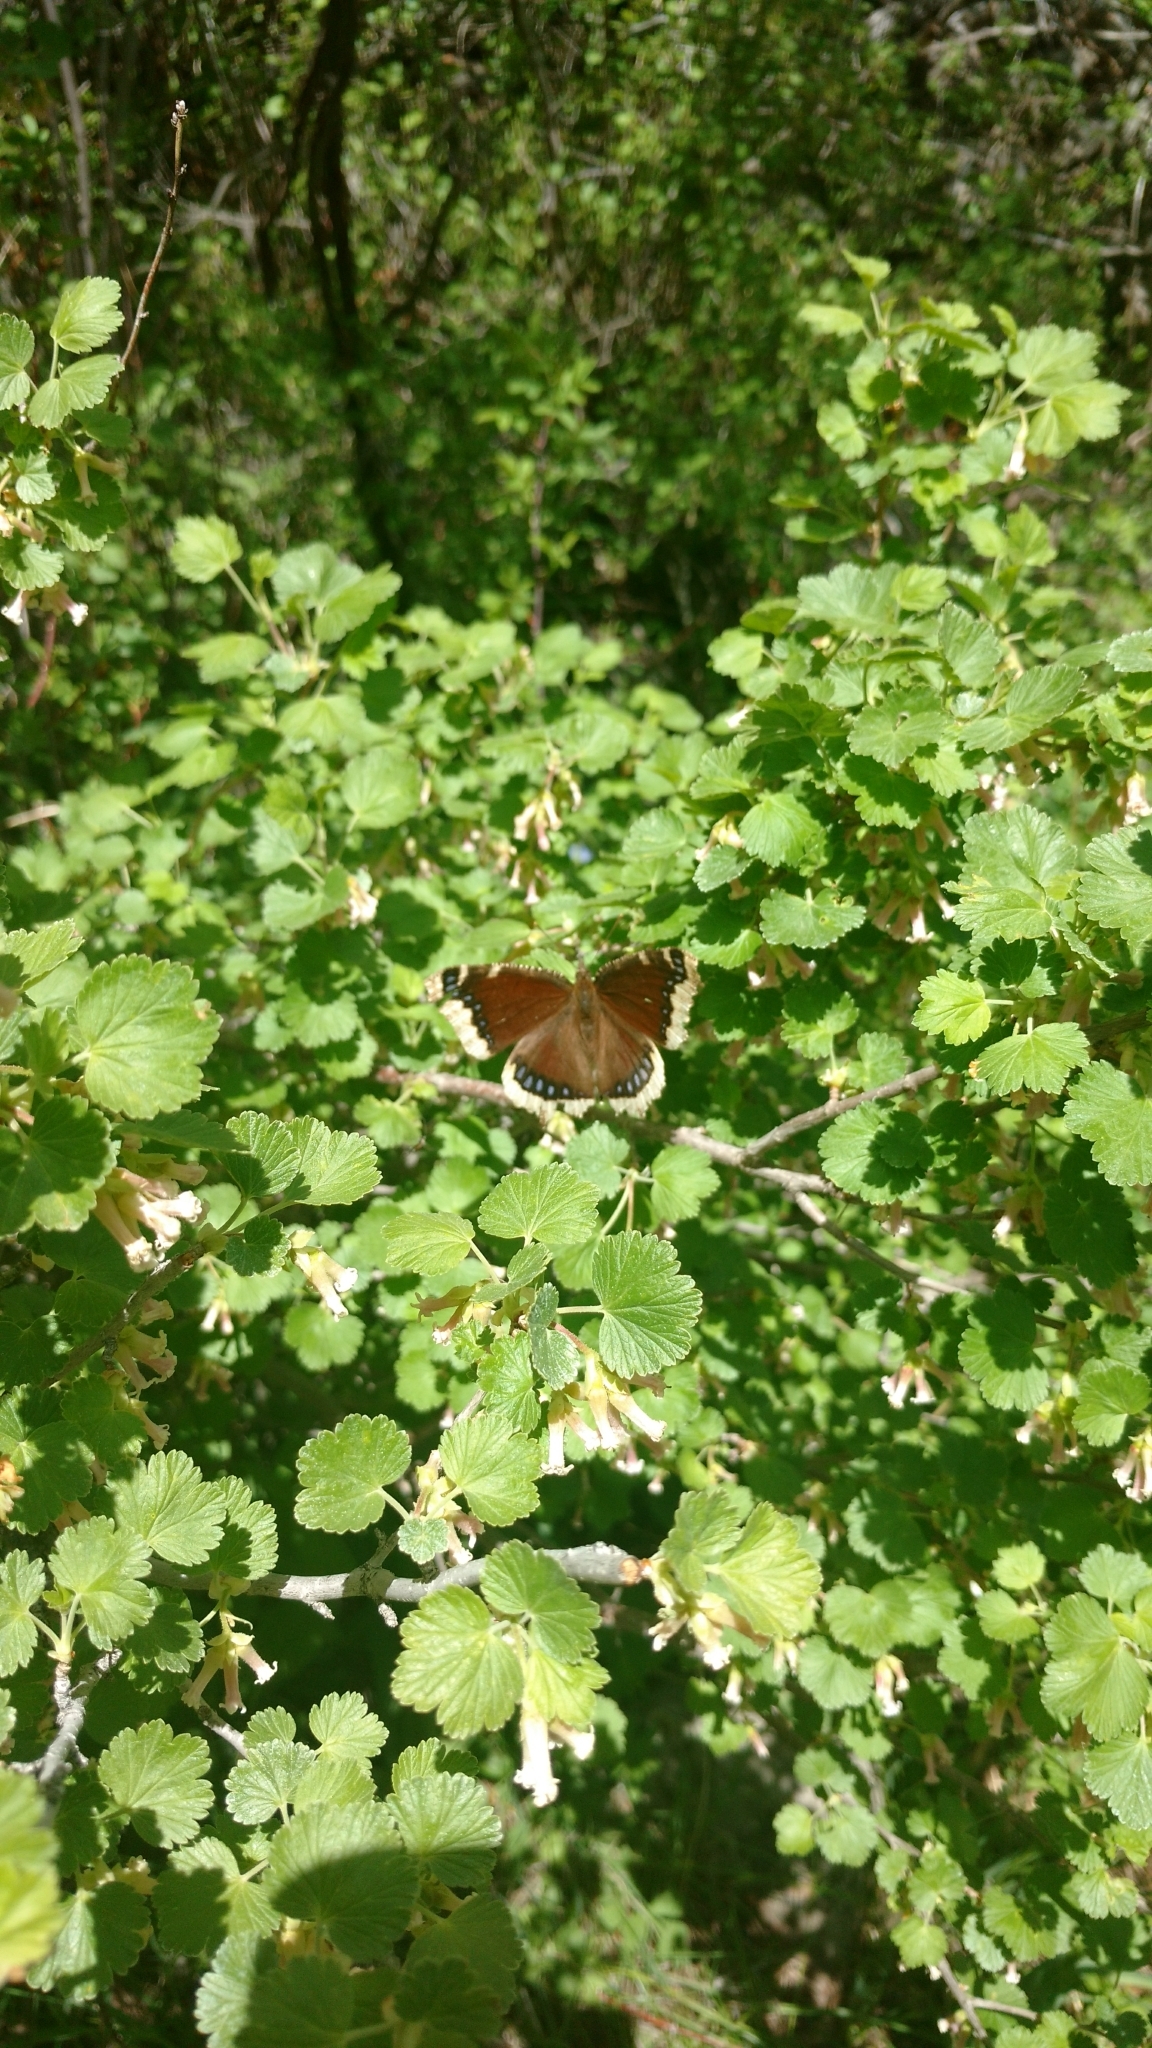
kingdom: Animalia
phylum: Arthropoda
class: Insecta
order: Lepidoptera
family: Nymphalidae
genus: Nymphalis
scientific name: Nymphalis antiopa
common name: Camberwell beauty
